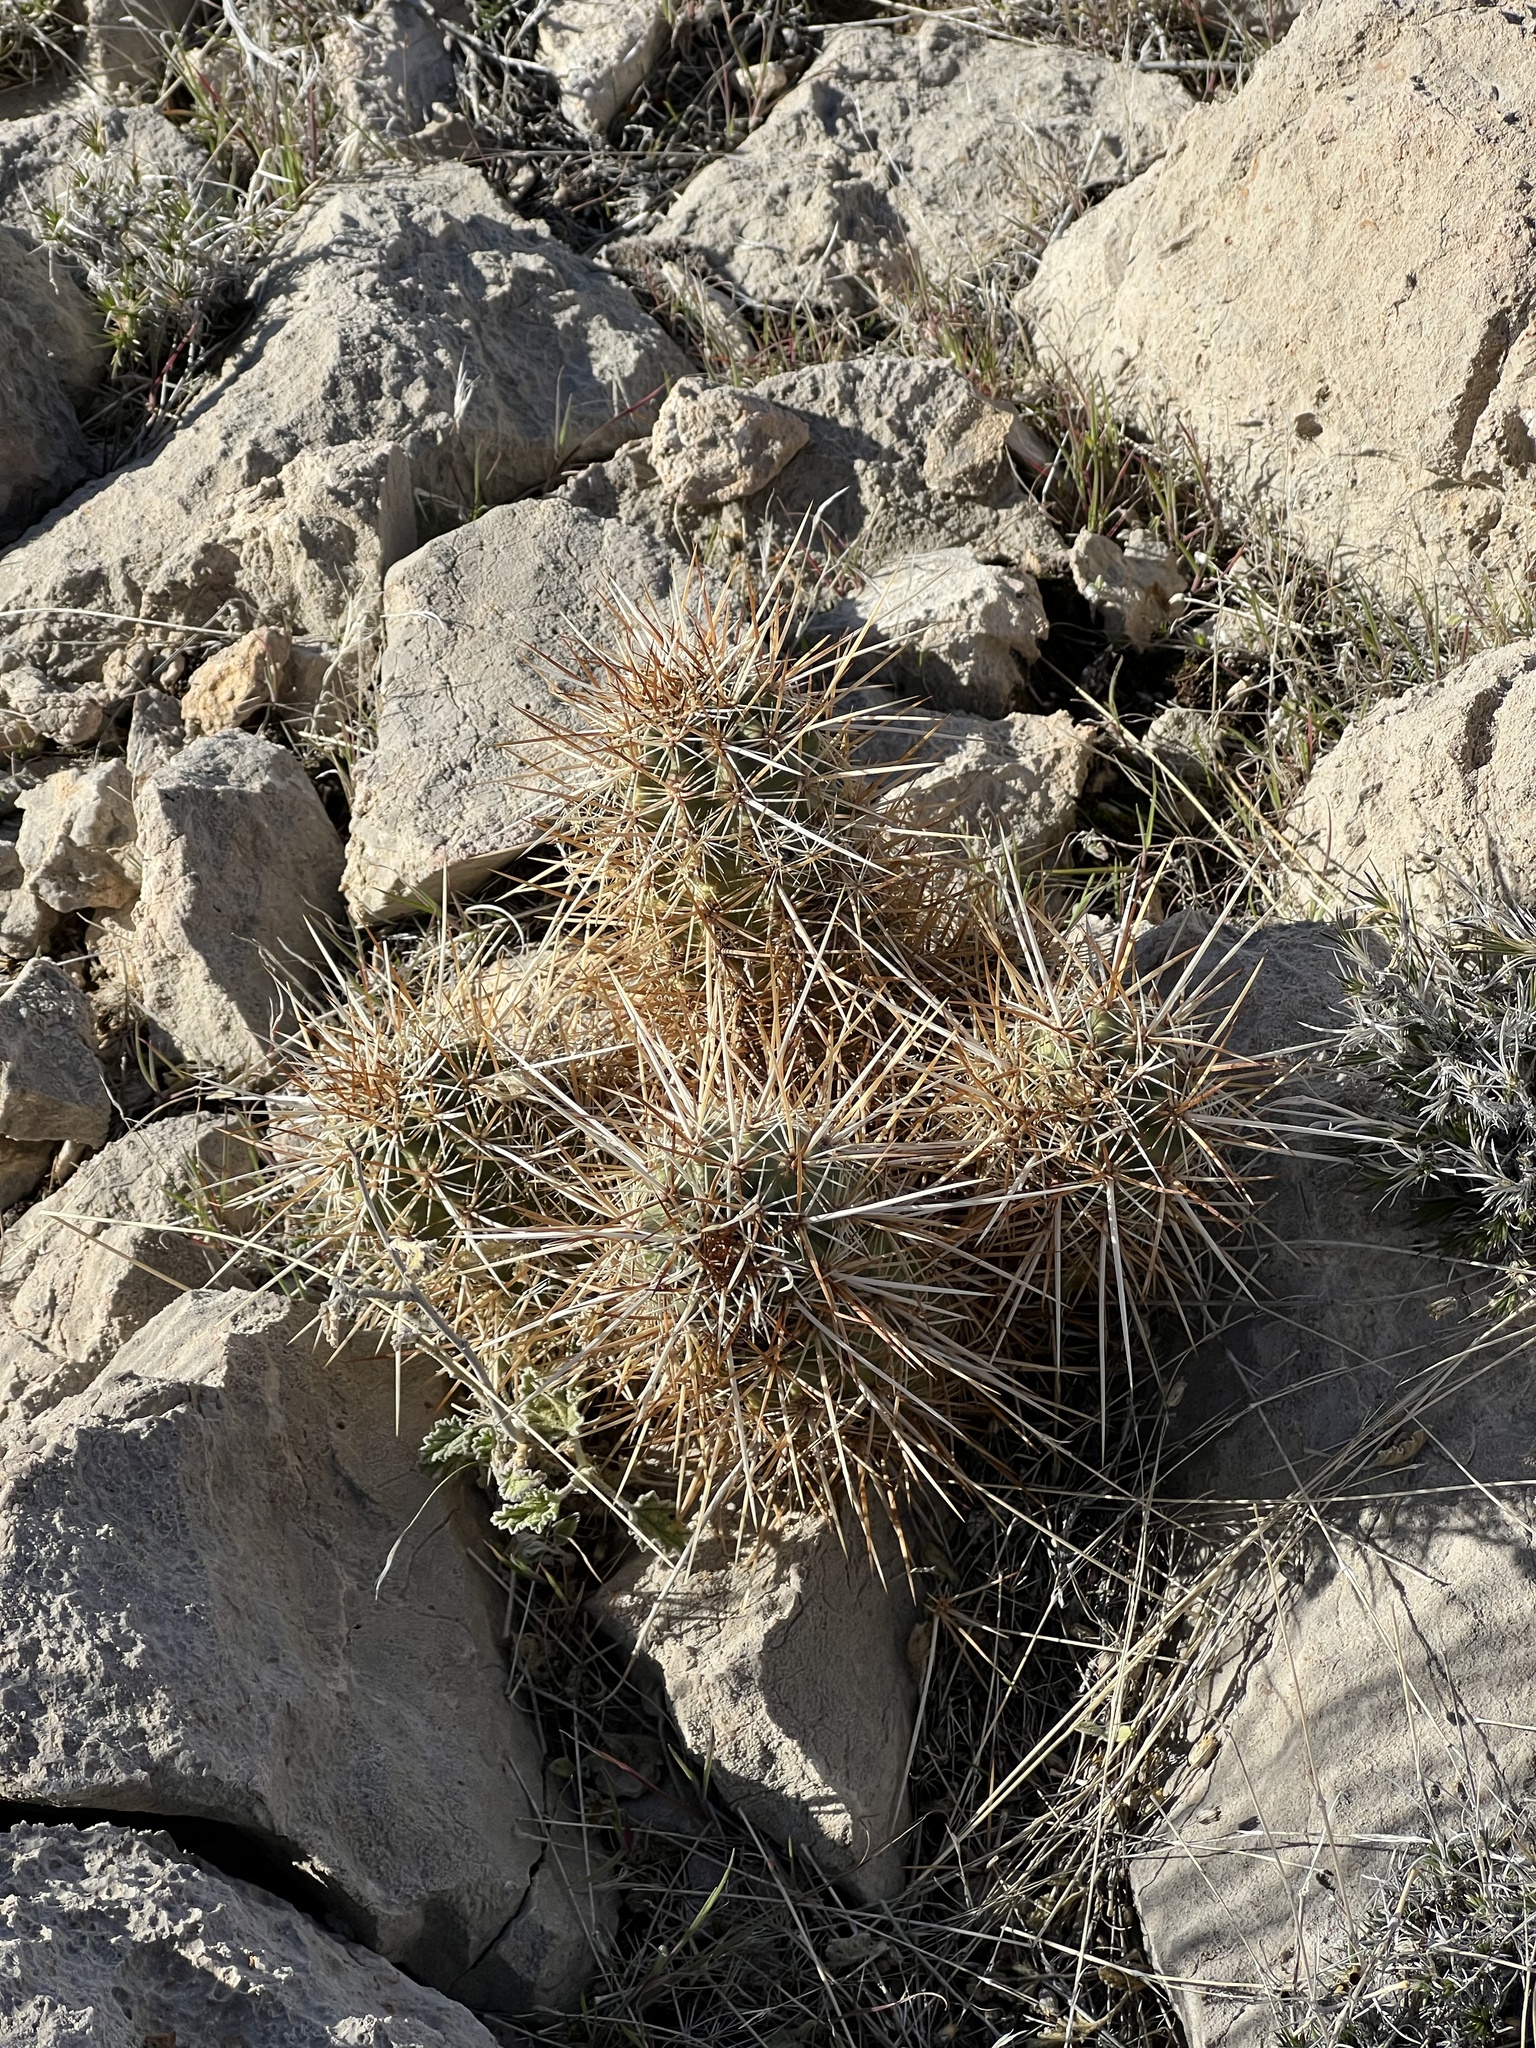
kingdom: Plantae
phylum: Tracheophyta
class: Magnoliopsida
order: Caryophyllales
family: Cactaceae
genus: Echinocereus
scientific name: Echinocereus engelmannii
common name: Engelmann's hedgehog cactus
